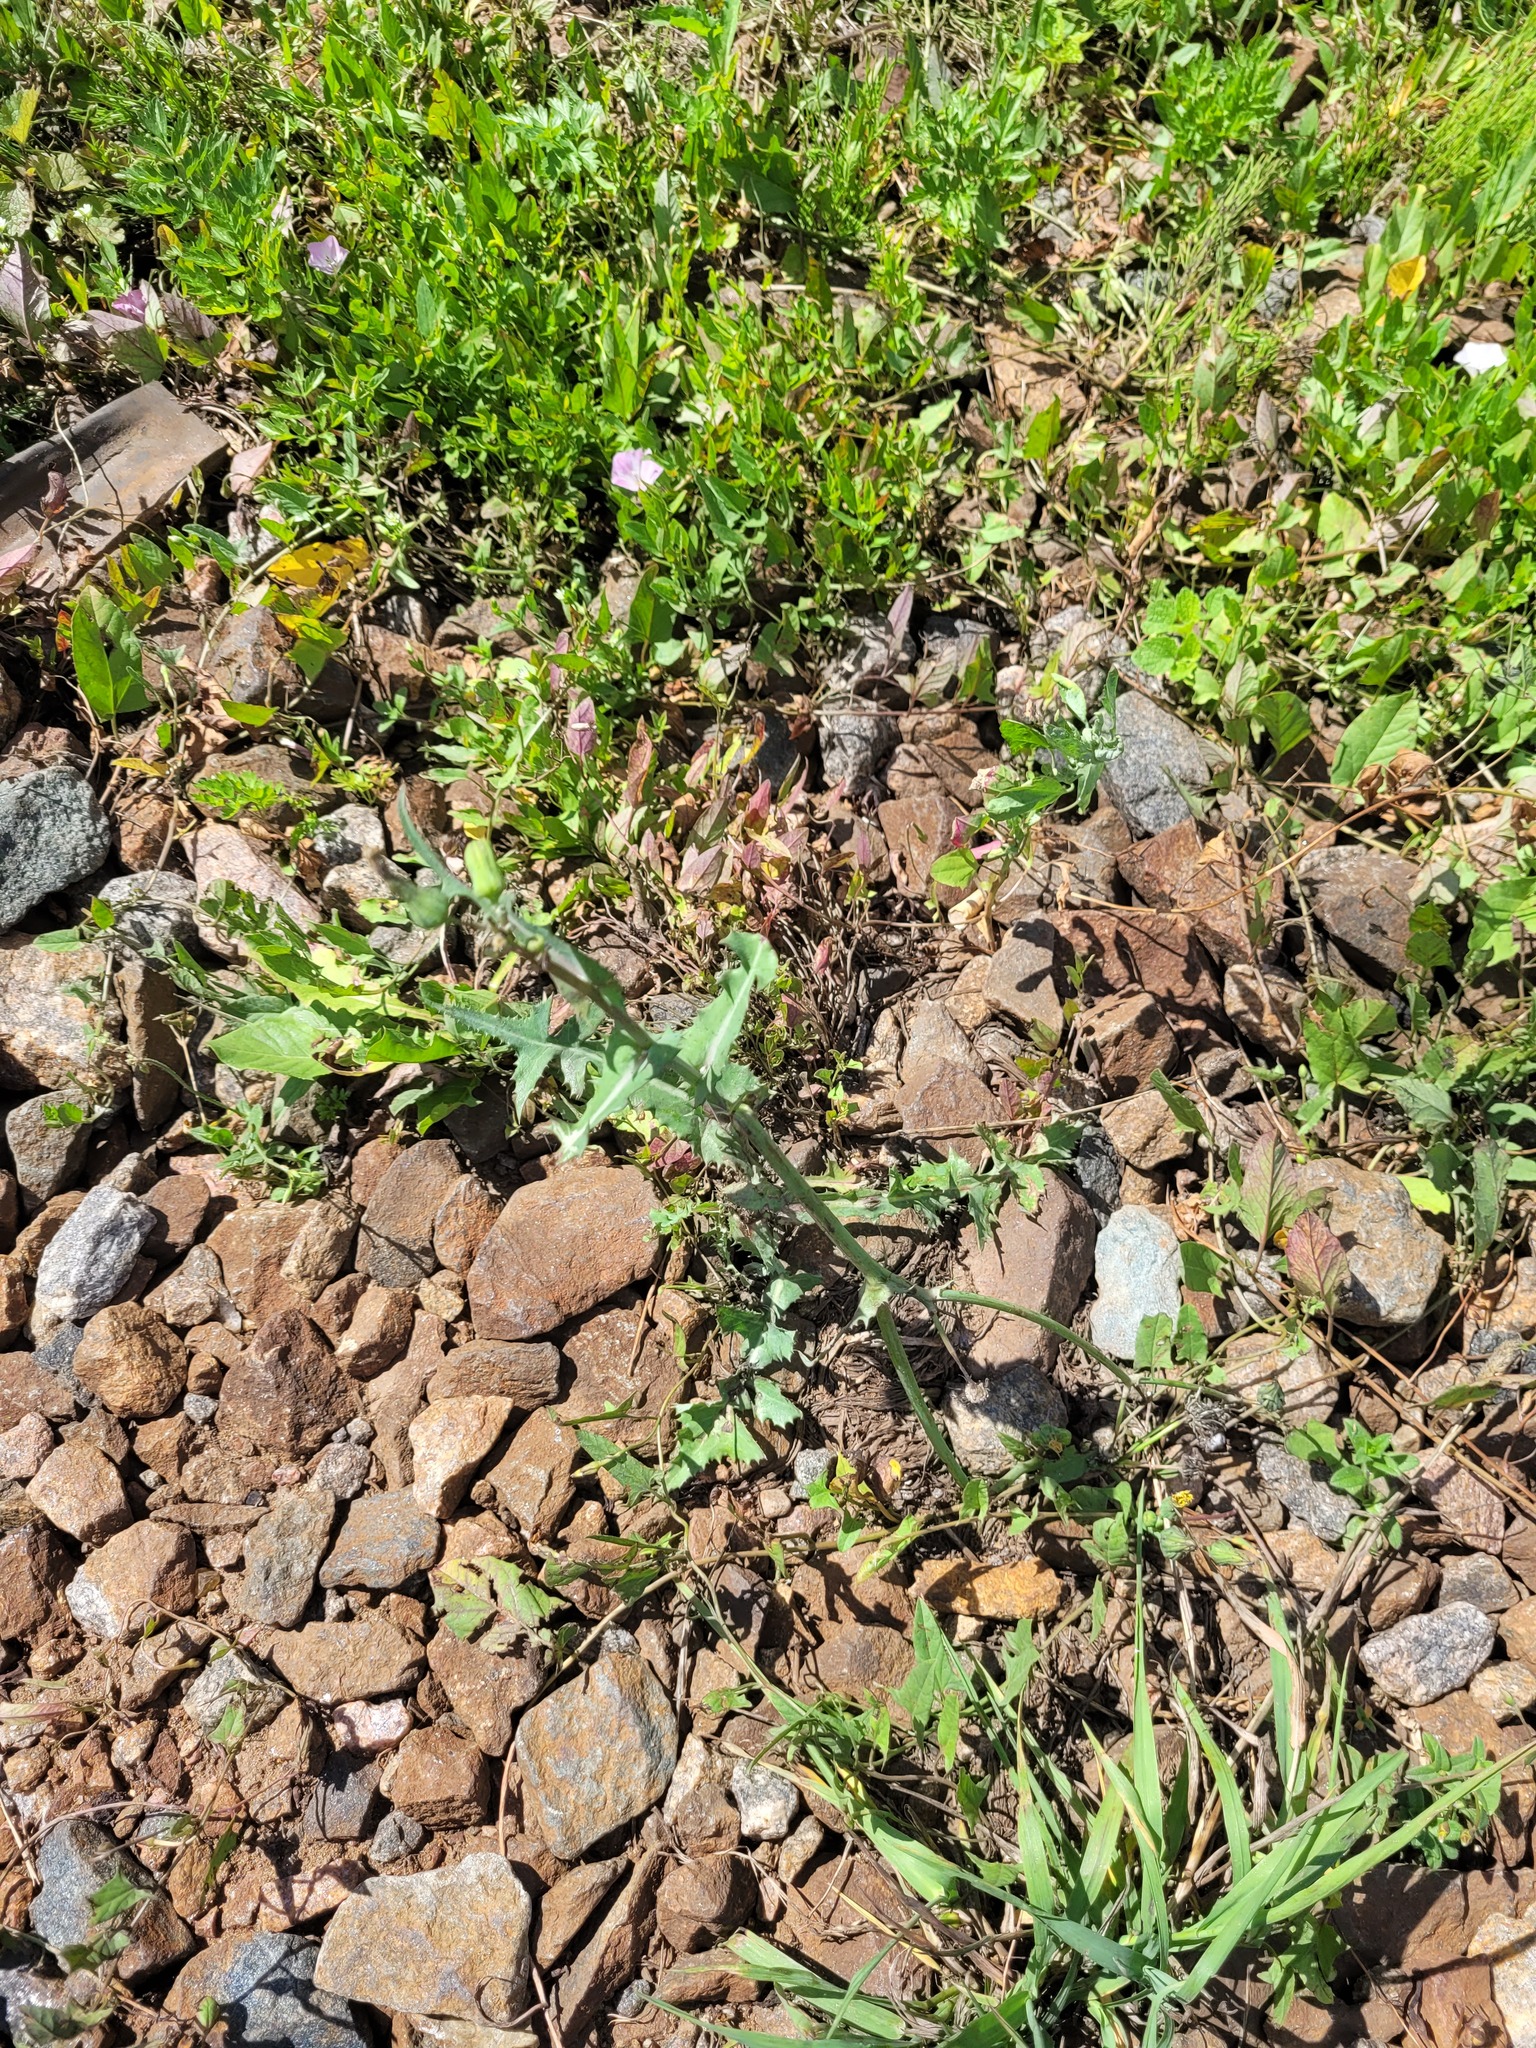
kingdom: Plantae
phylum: Tracheophyta
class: Magnoliopsida
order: Asterales
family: Asteraceae
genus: Sonchus
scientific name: Sonchus oleraceus
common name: Common sowthistle
